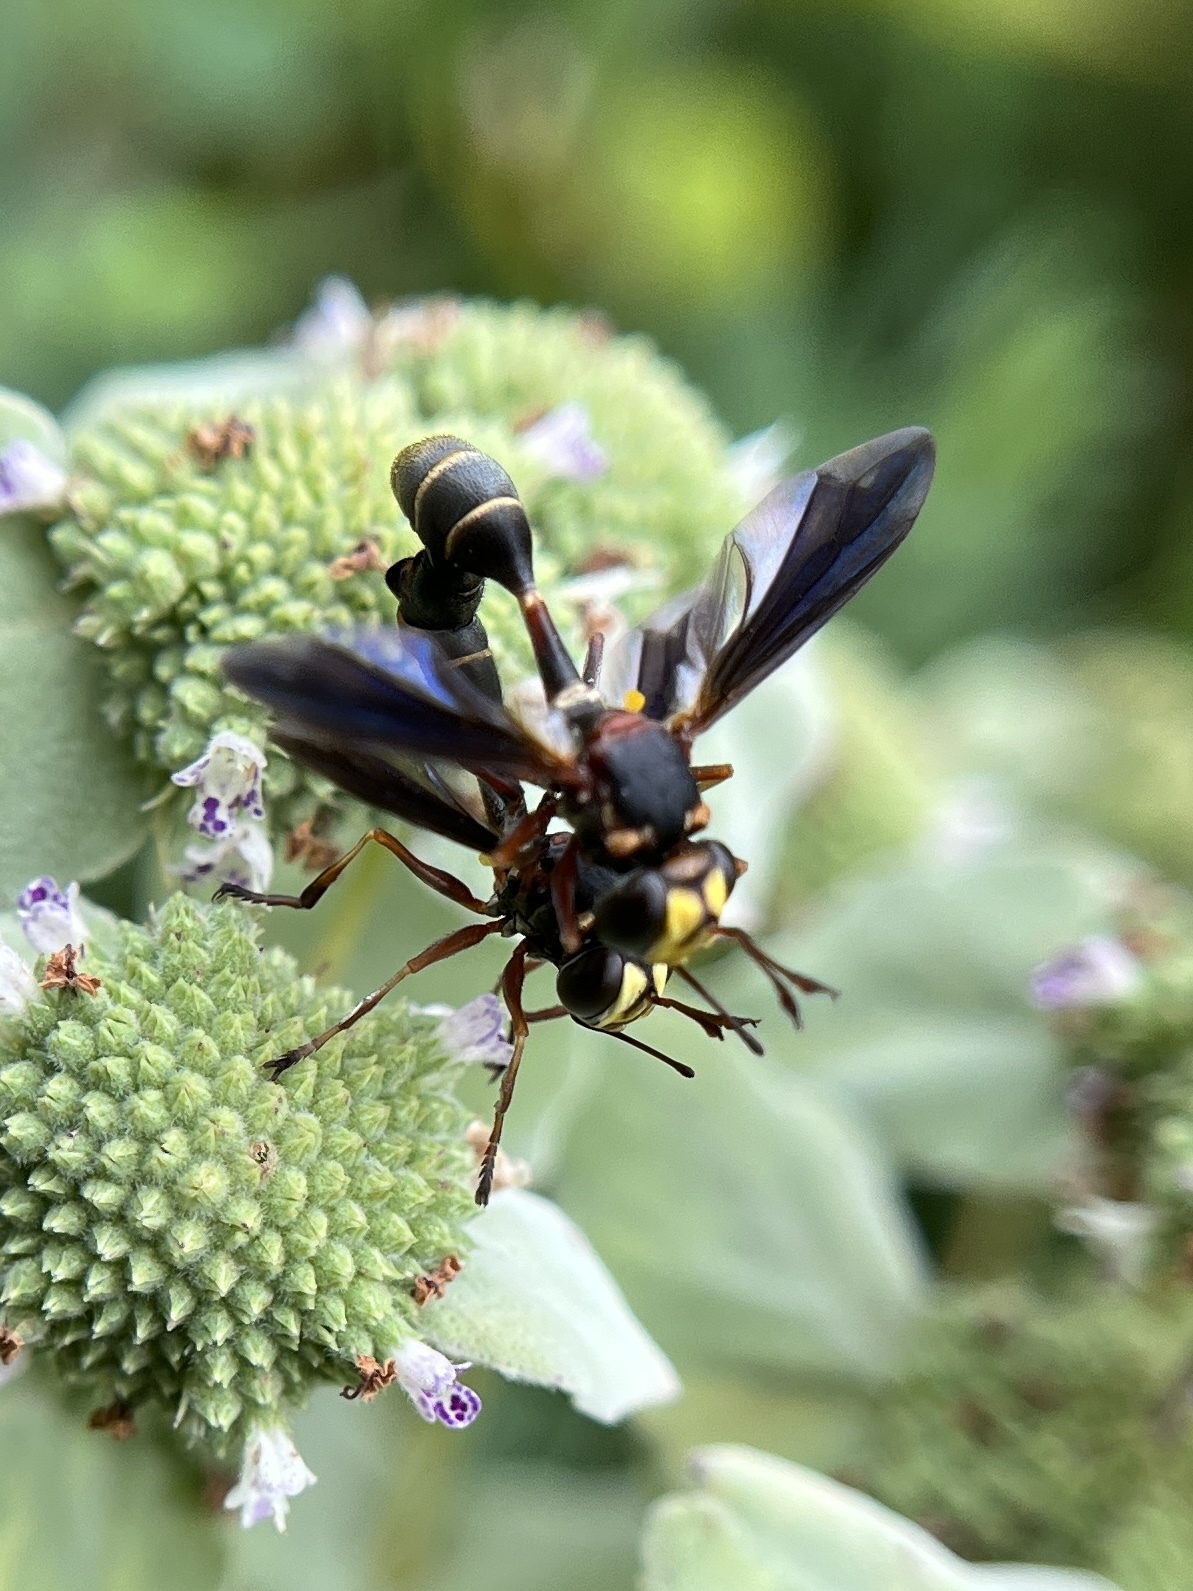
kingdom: Animalia
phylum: Arthropoda
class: Insecta
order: Diptera
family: Conopidae
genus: Physocephala
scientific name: Physocephala sagittaria
